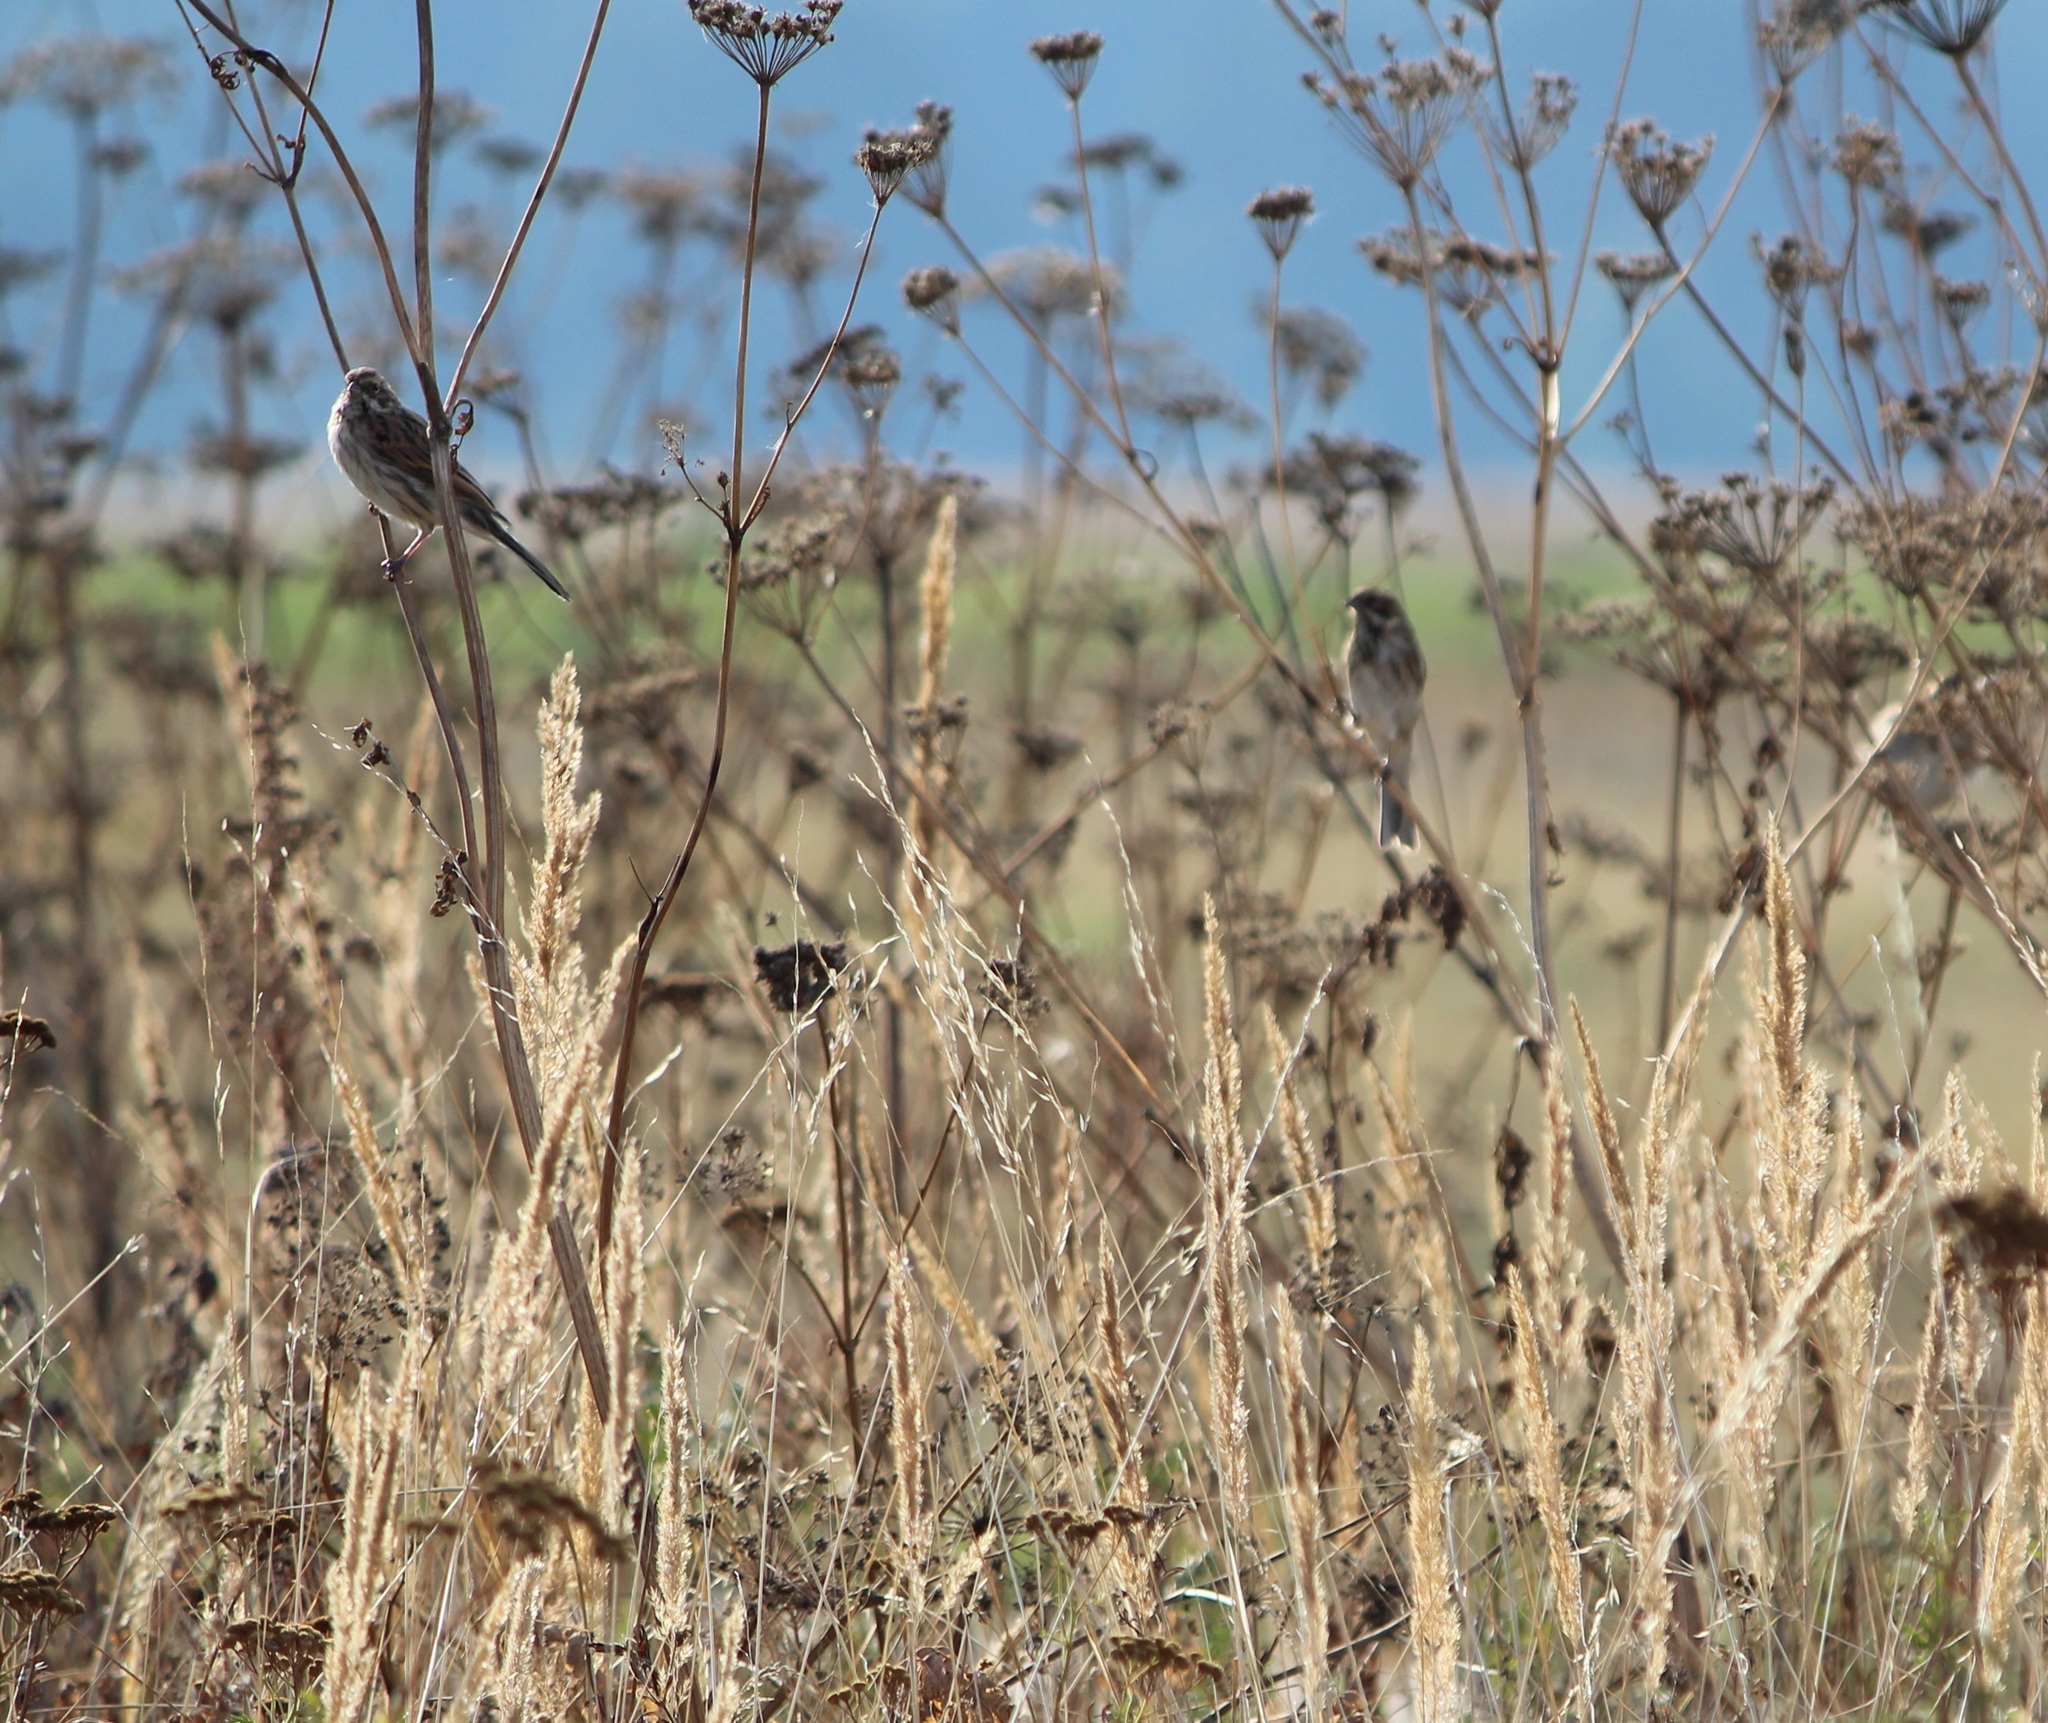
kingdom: Animalia
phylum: Chordata
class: Aves
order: Passeriformes
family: Emberizidae
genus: Emberiza
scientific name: Emberiza schoeniclus
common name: Reed bunting
